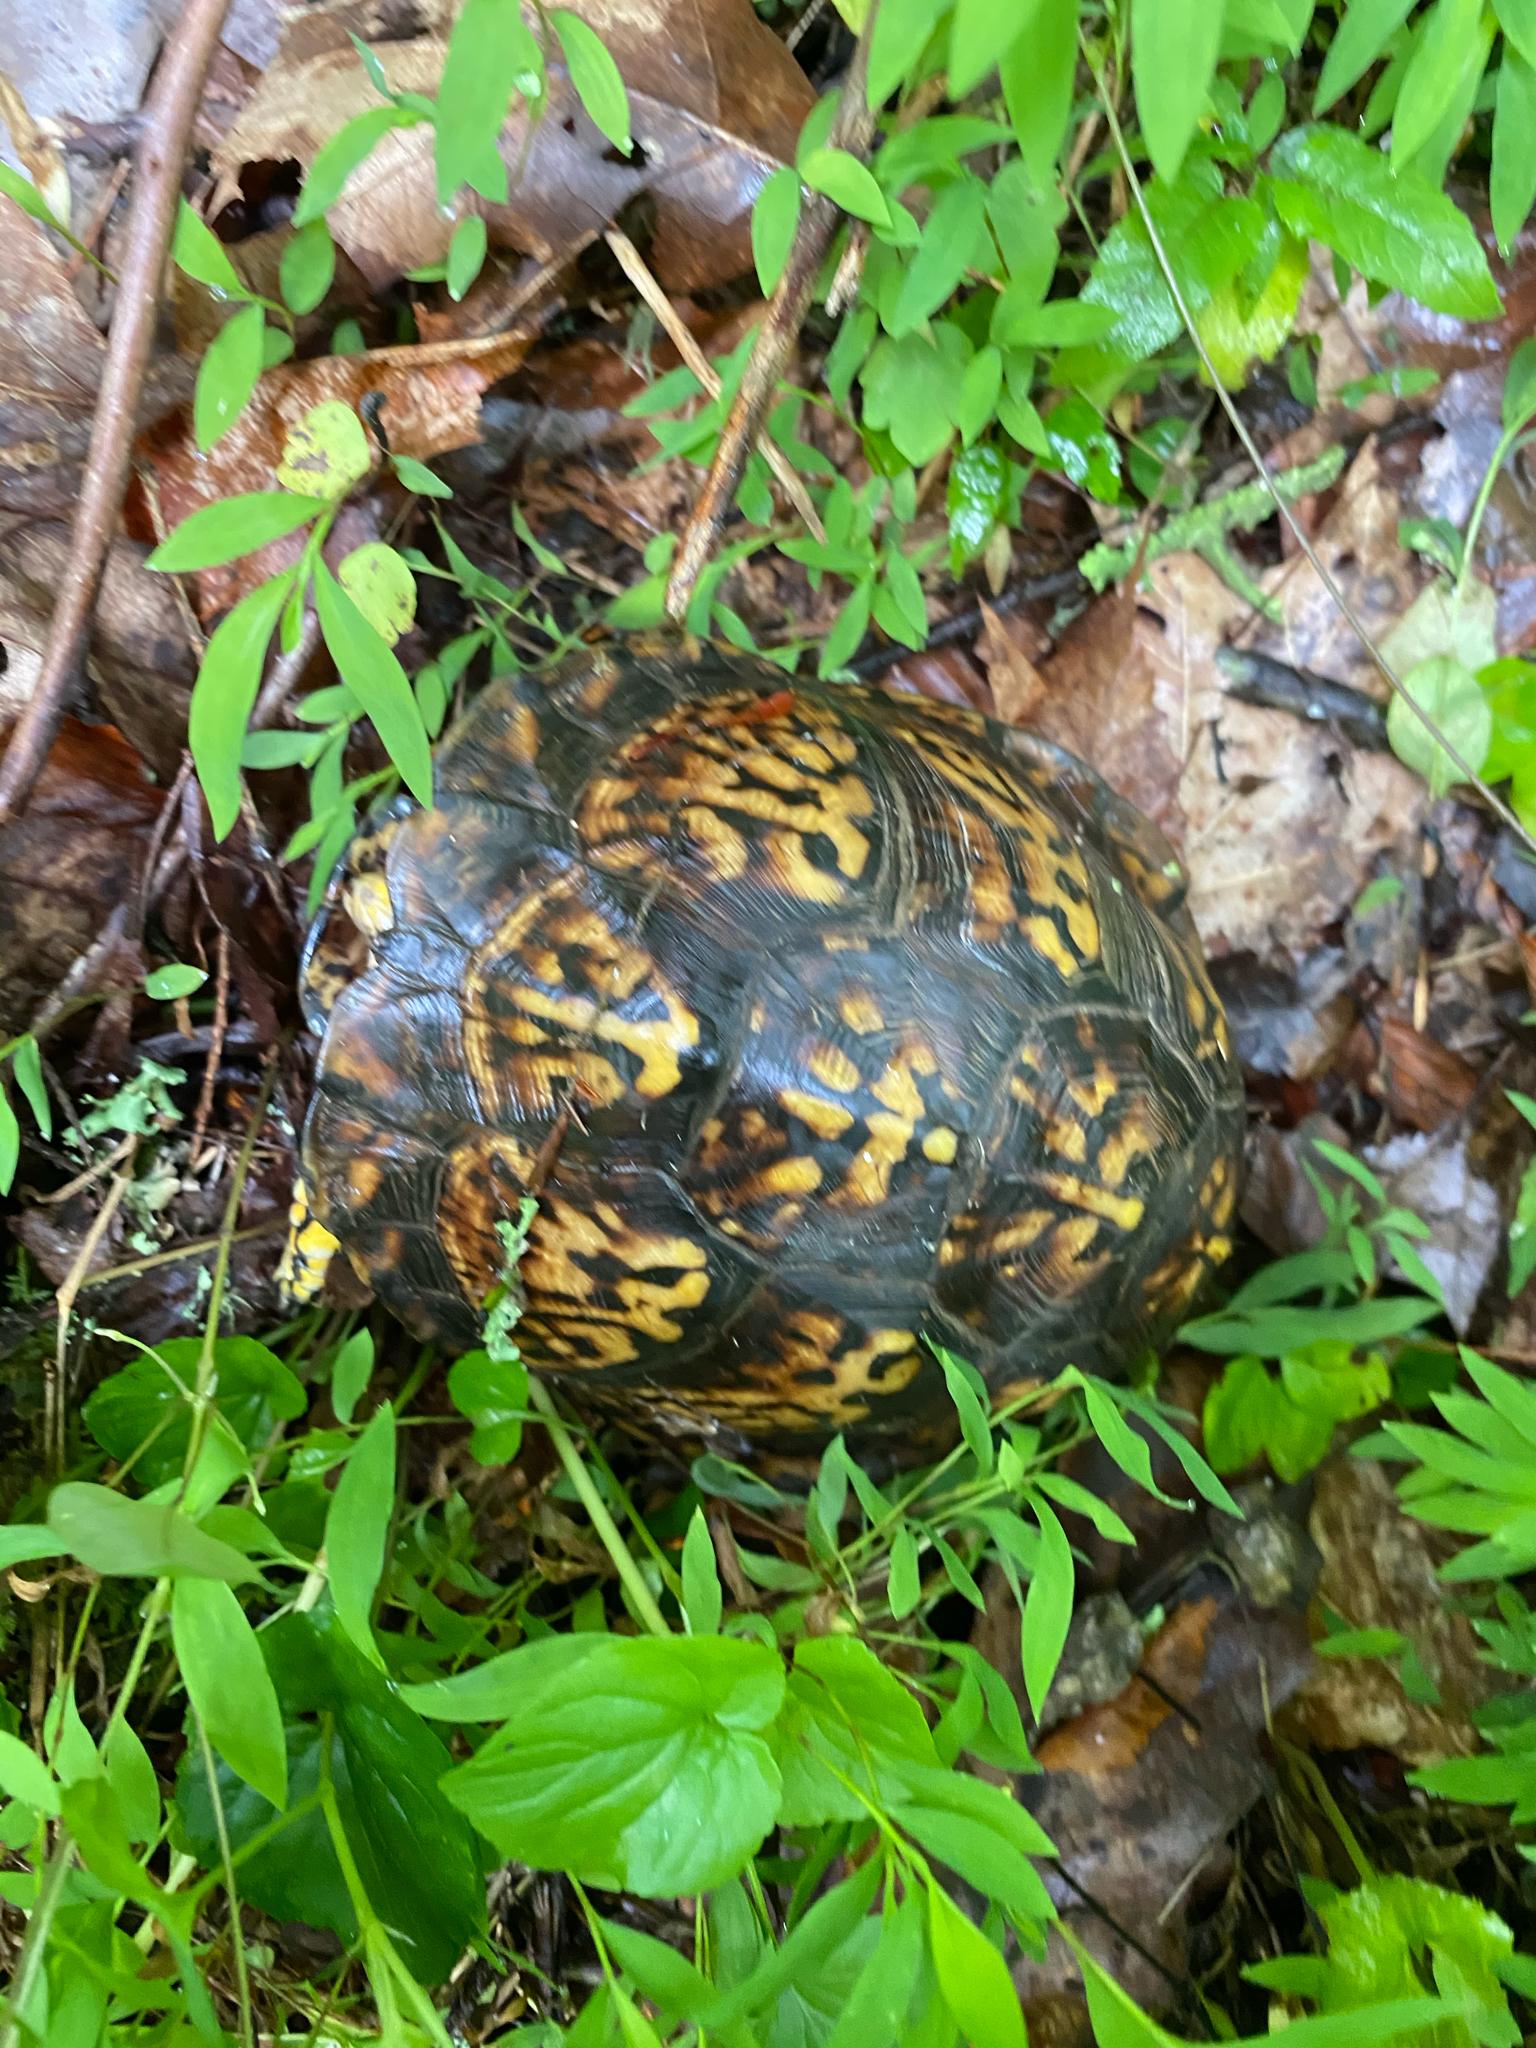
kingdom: Animalia
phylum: Chordata
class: Testudines
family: Emydidae
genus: Terrapene
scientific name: Terrapene carolina
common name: Common box turtle
